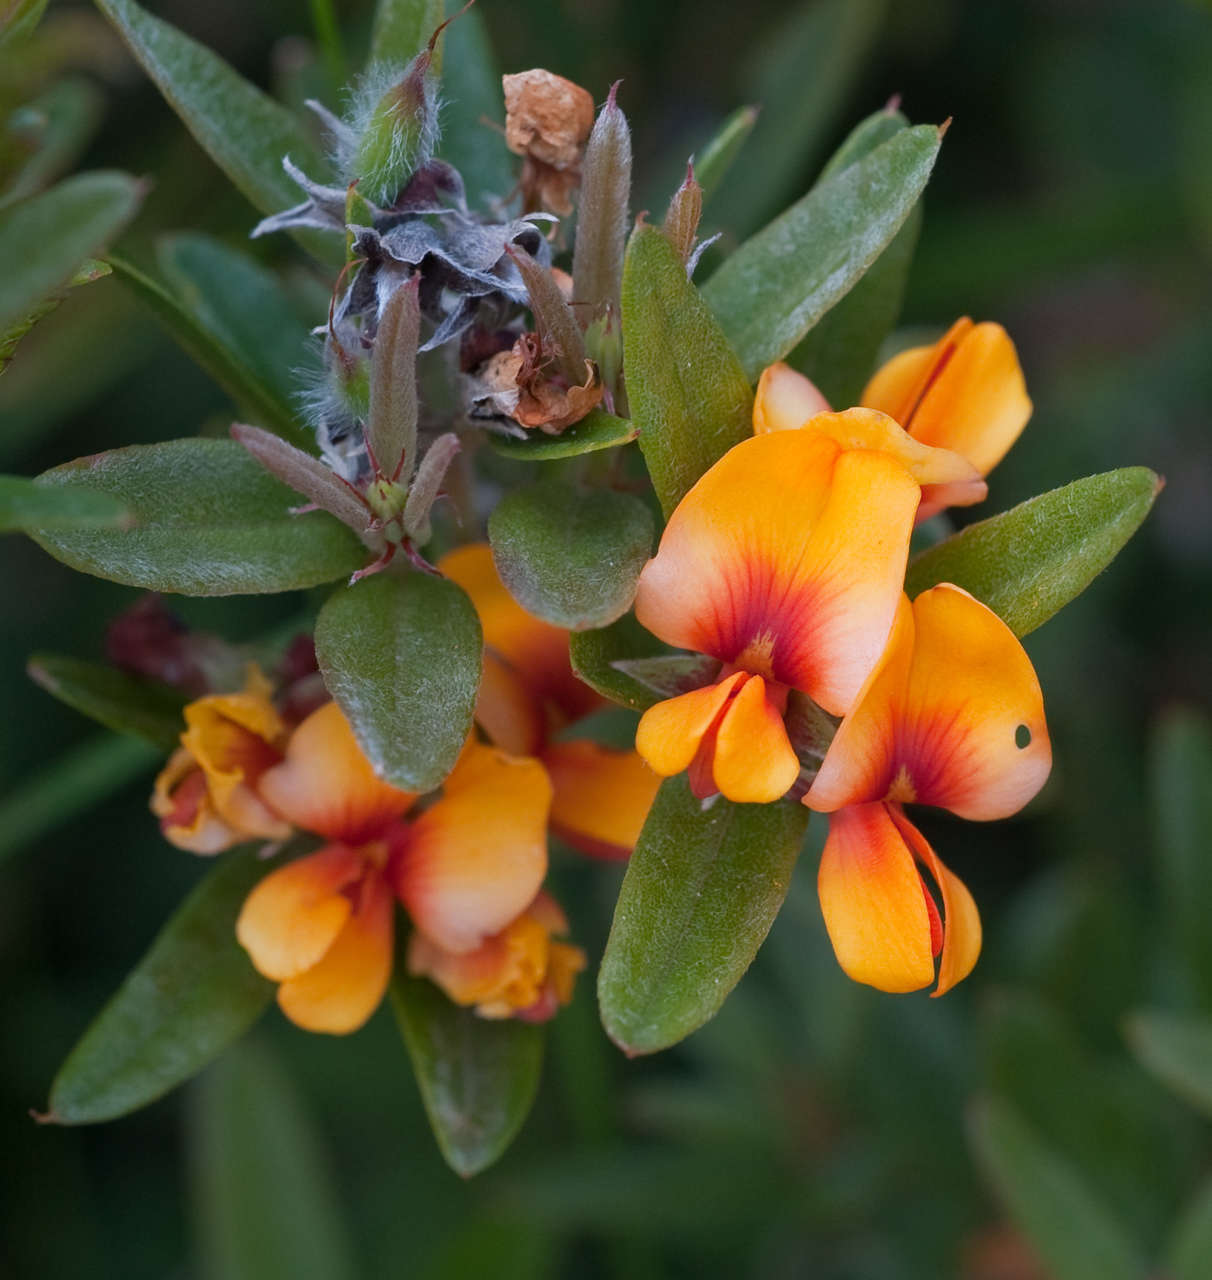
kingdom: Plantae
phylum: Tracheophyta
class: Magnoliopsida
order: Fabales
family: Fabaceae
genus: Podolobium
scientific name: Podolobium alpestre
